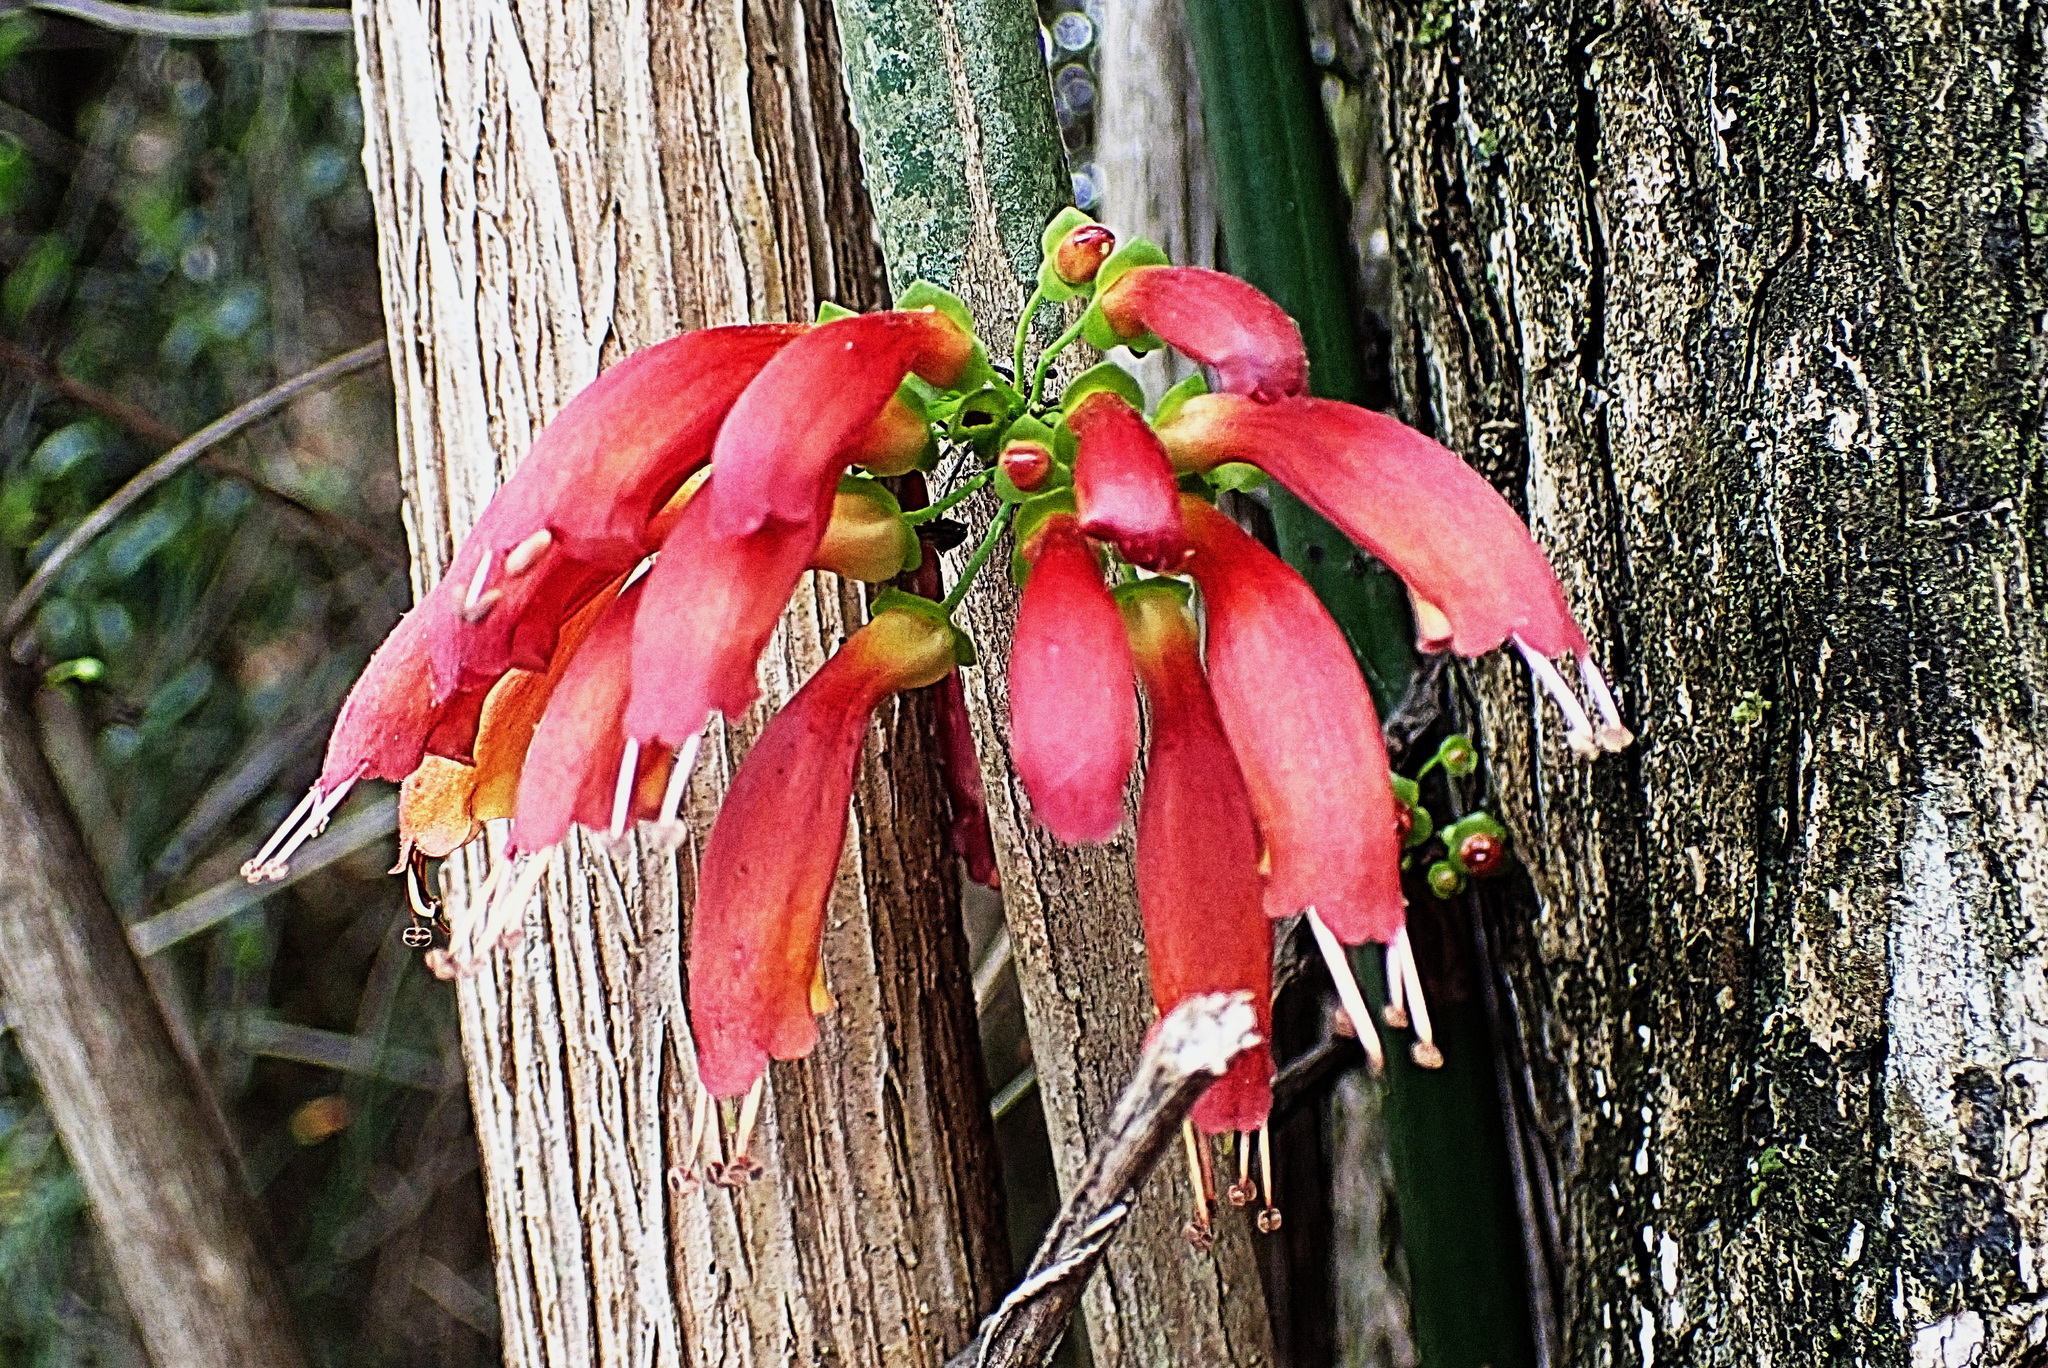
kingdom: Plantae
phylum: Tracheophyta
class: Magnoliopsida
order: Lamiales
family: Stilbaceae
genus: Halleria
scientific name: Halleria lucida
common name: Tree fuschia
